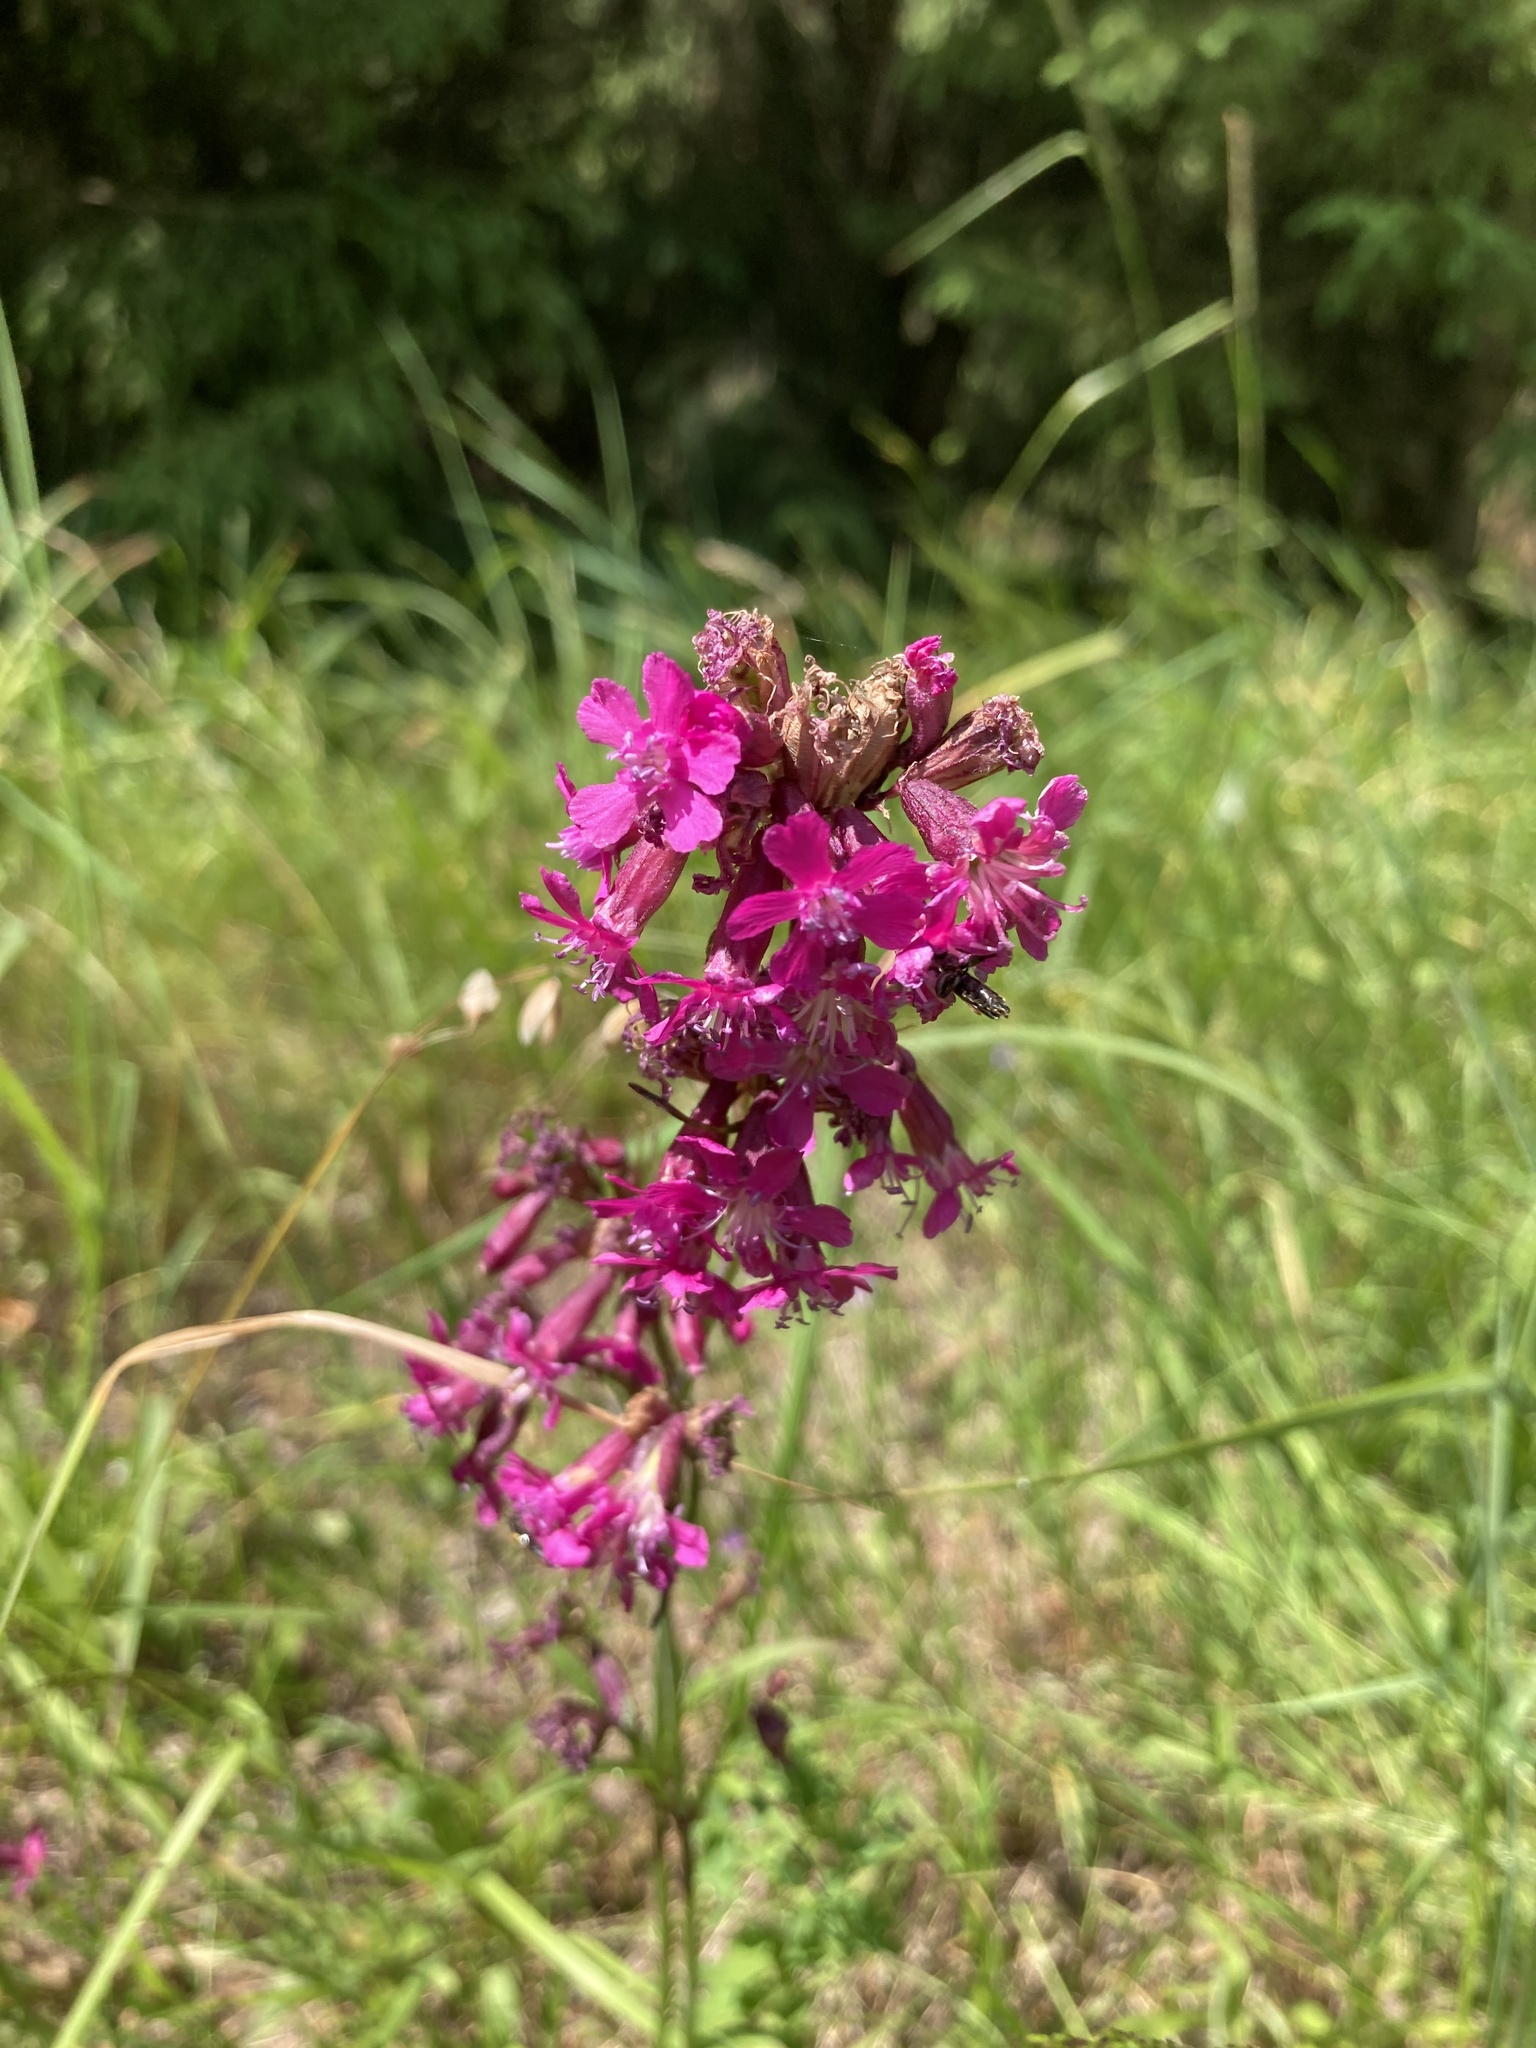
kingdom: Plantae
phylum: Tracheophyta
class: Magnoliopsida
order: Caryophyllales
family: Caryophyllaceae
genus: Viscaria
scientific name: Viscaria vulgaris
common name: Clammy campion
